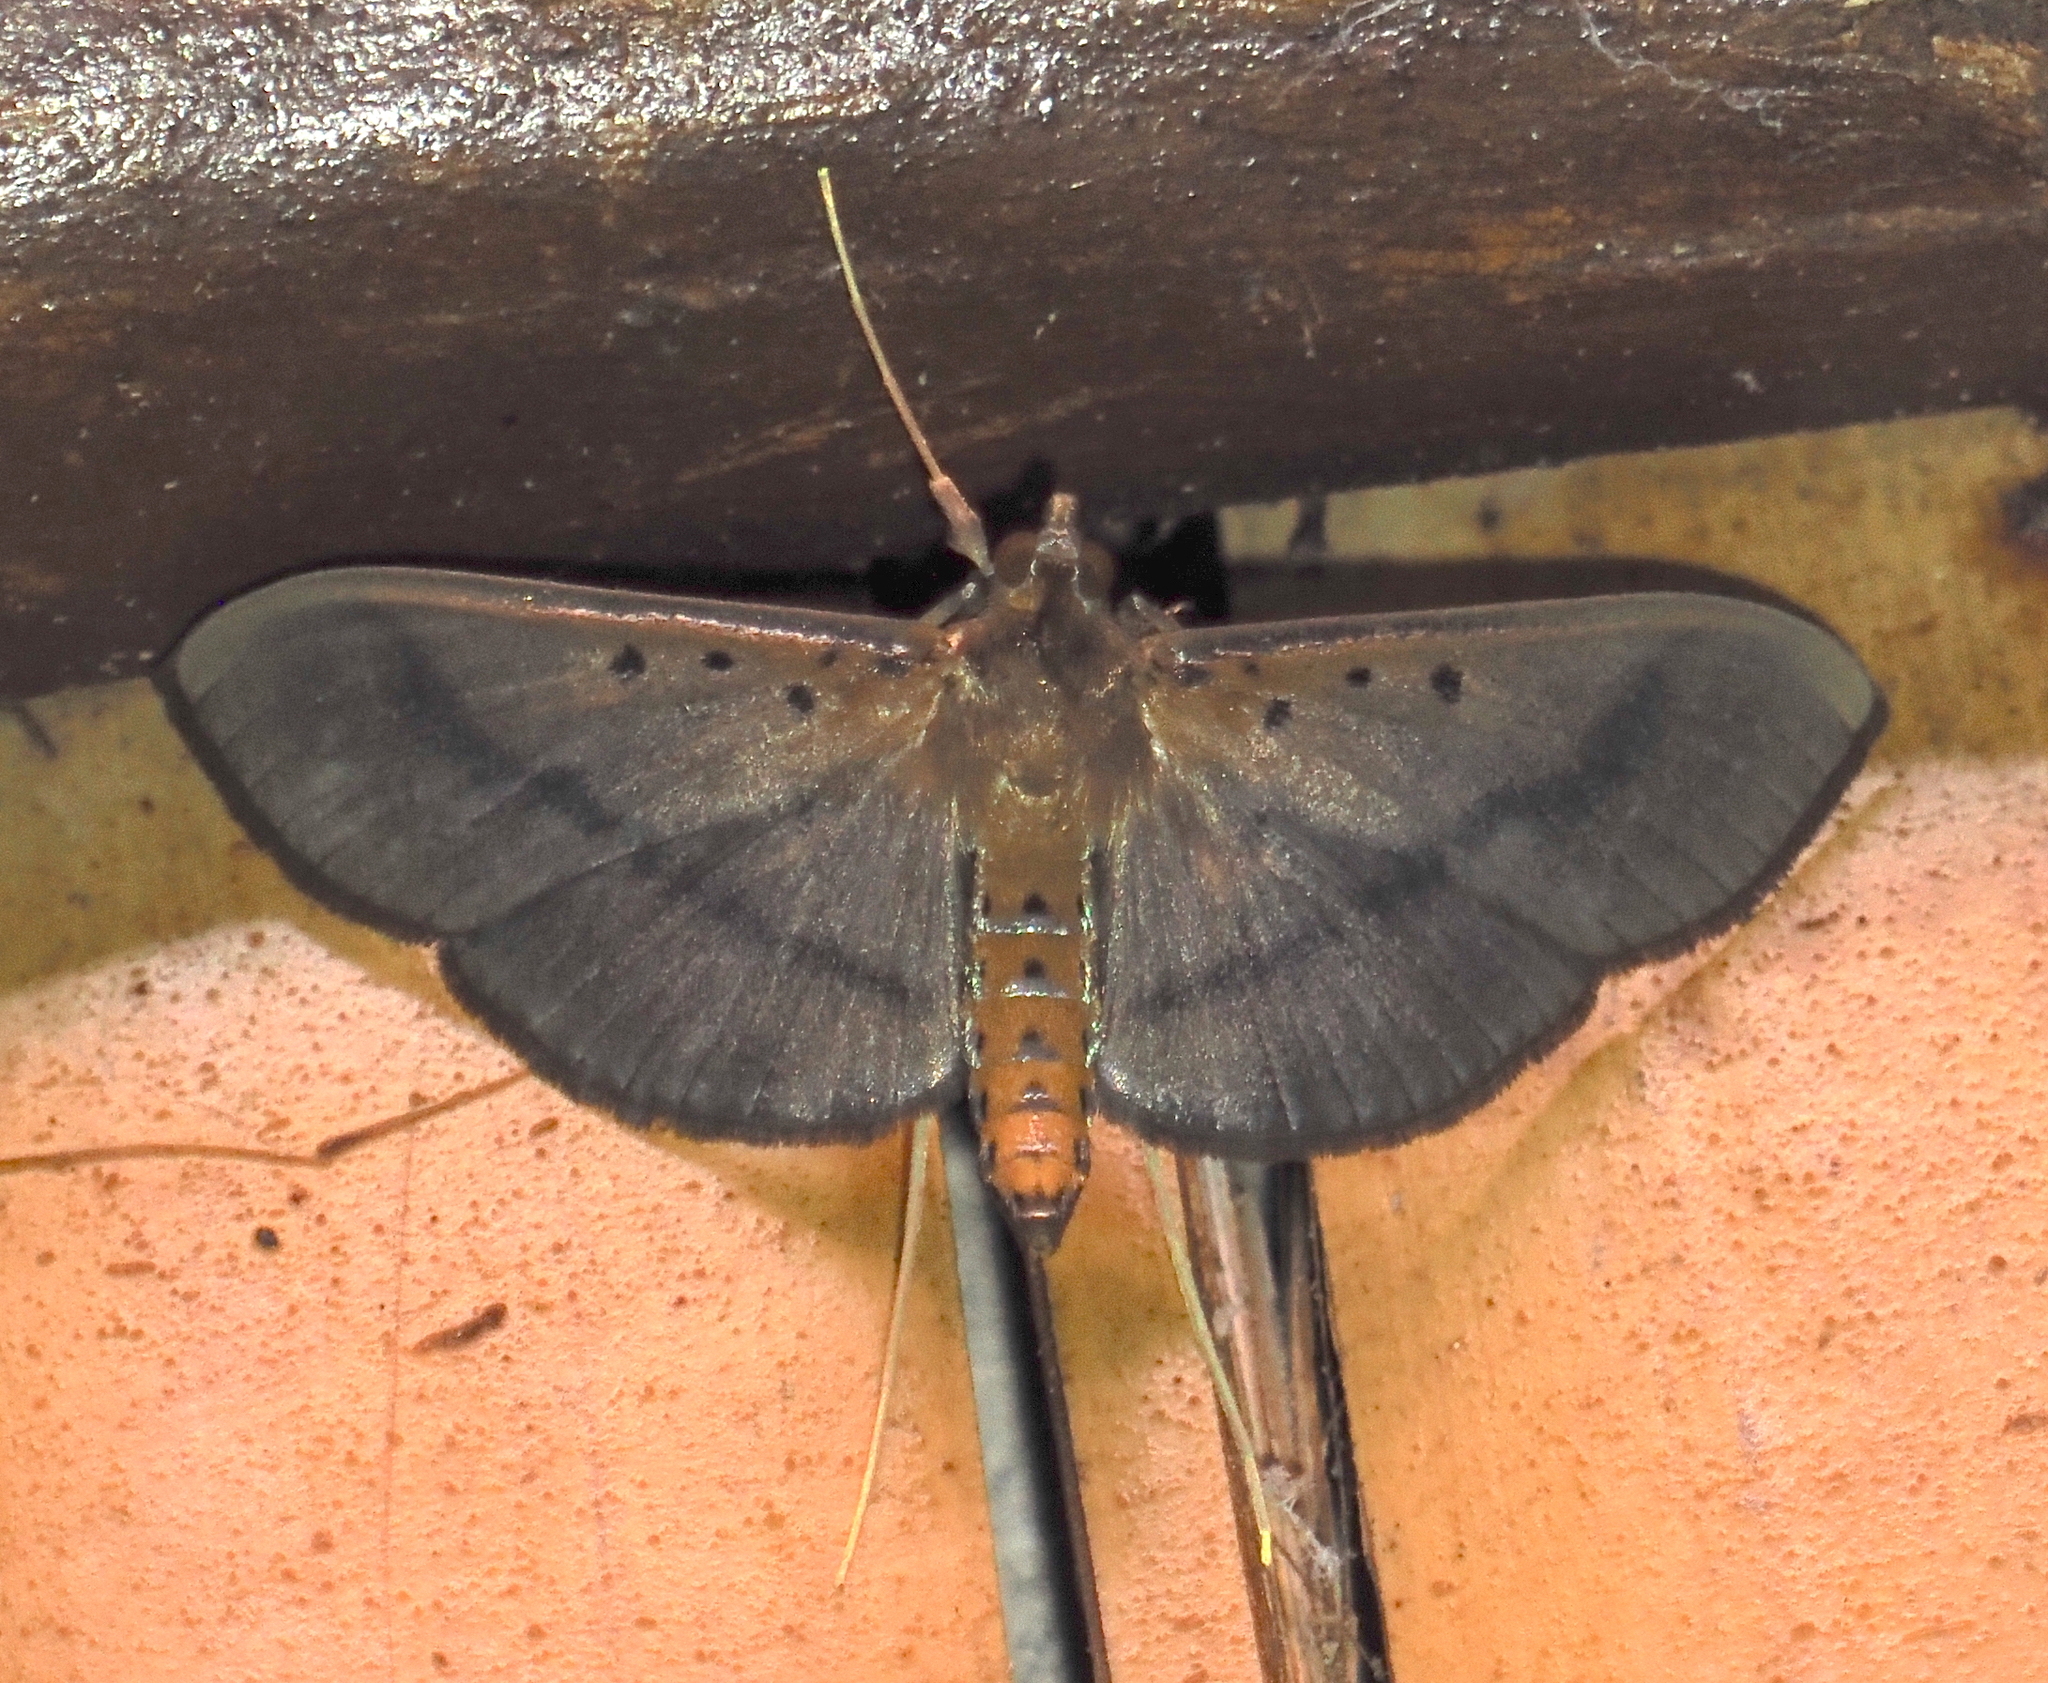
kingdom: Animalia
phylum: Arthropoda
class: Insecta
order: Lepidoptera
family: Crambidae
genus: Filodes
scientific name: Filodes fulvidorsalis
